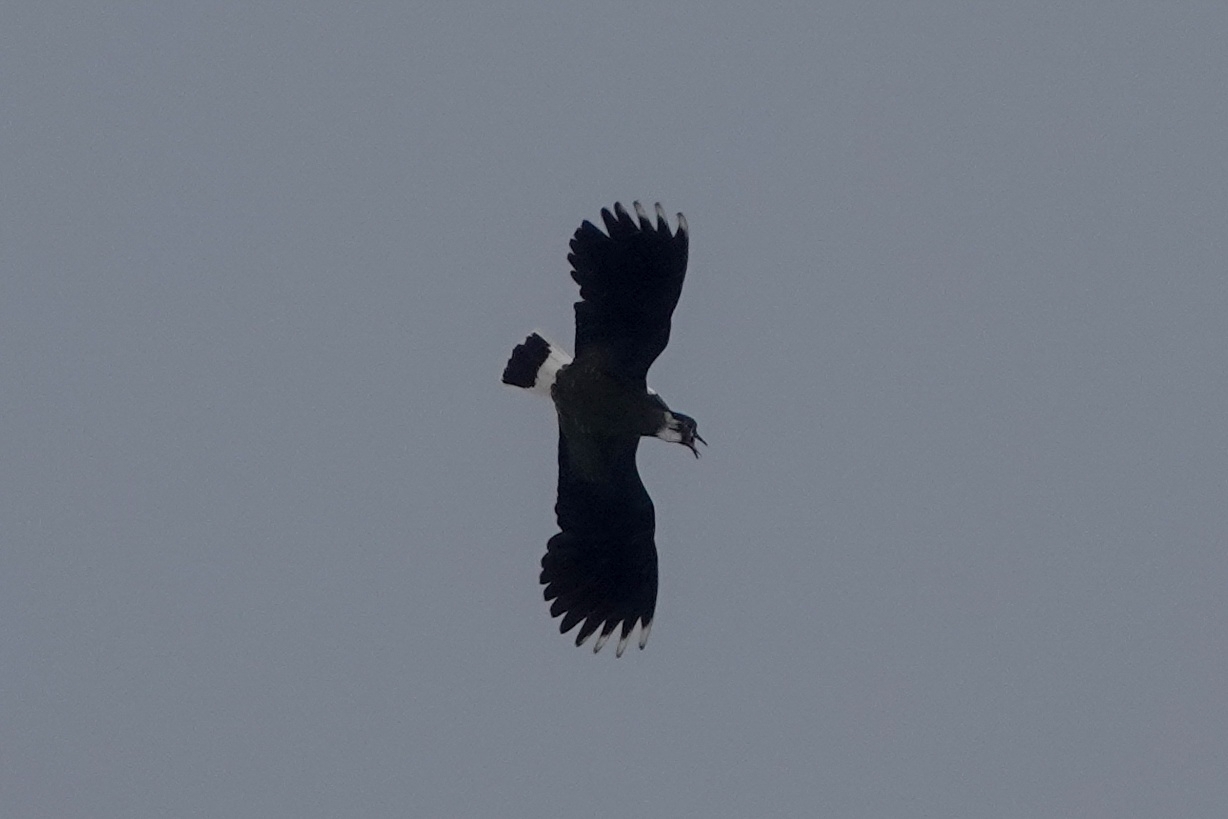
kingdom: Animalia
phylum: Chordata
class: Aves
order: Charadriiformes
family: Charadriidae
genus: Vanellus
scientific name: Vanellus vanellus
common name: Northern lapwing
